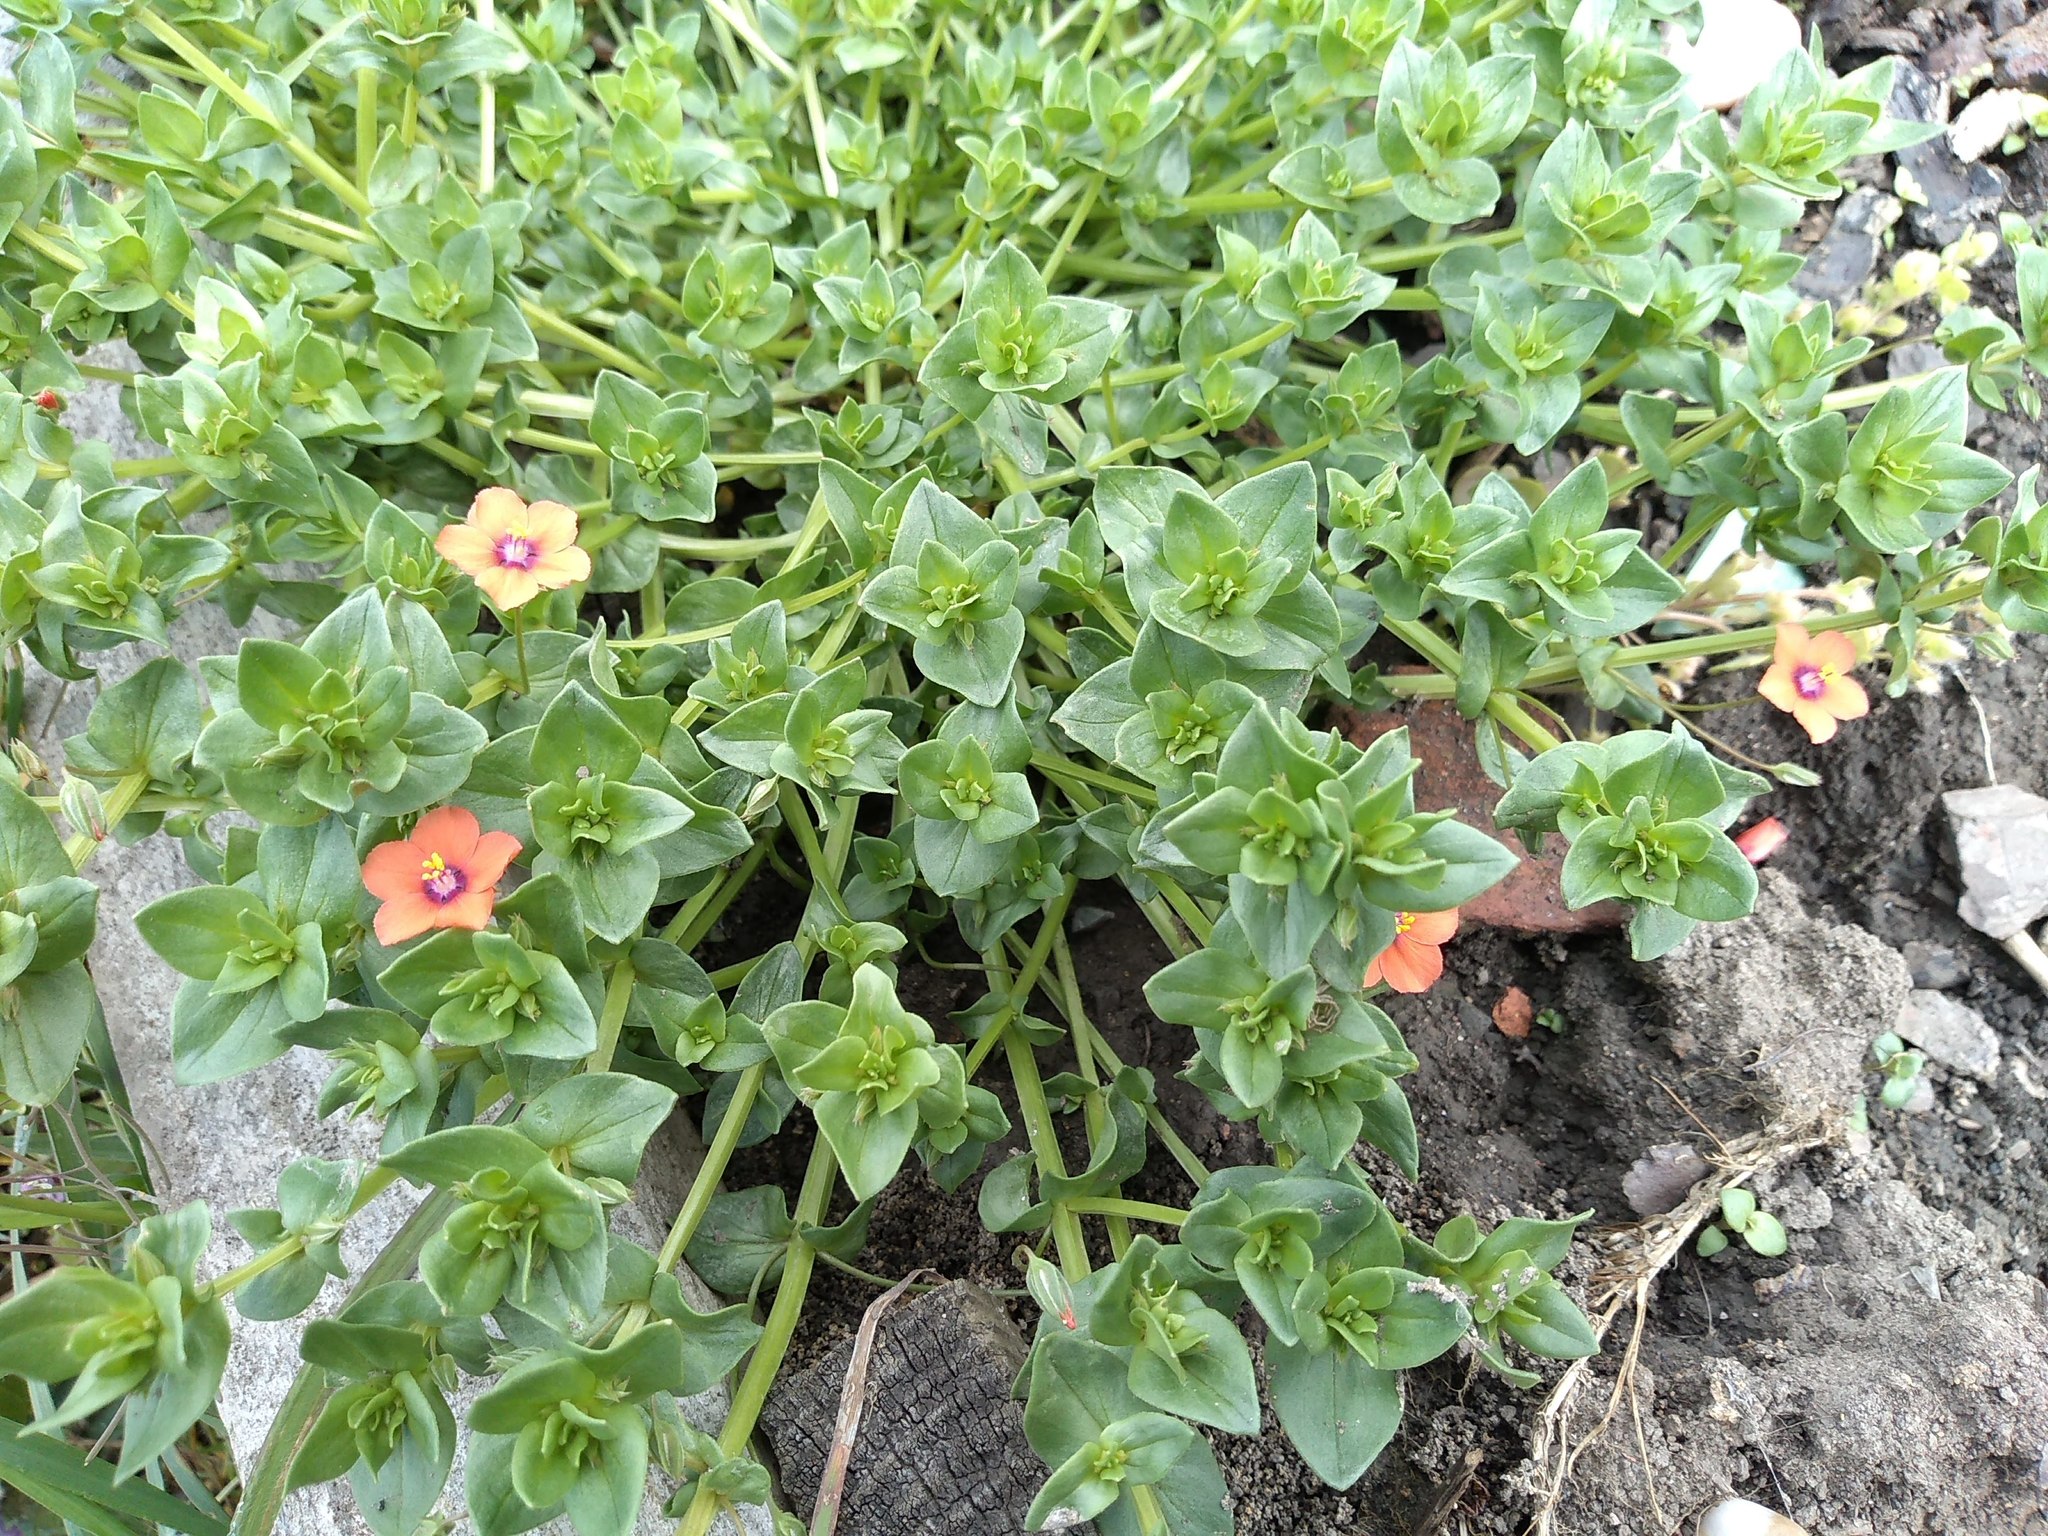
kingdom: Plantae
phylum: Tracheophyta
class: Magnoliopsida
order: Ericales
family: Primulaceae
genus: Lysimachia
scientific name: Lysimachia arvensis
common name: Scarlet pimpernel
